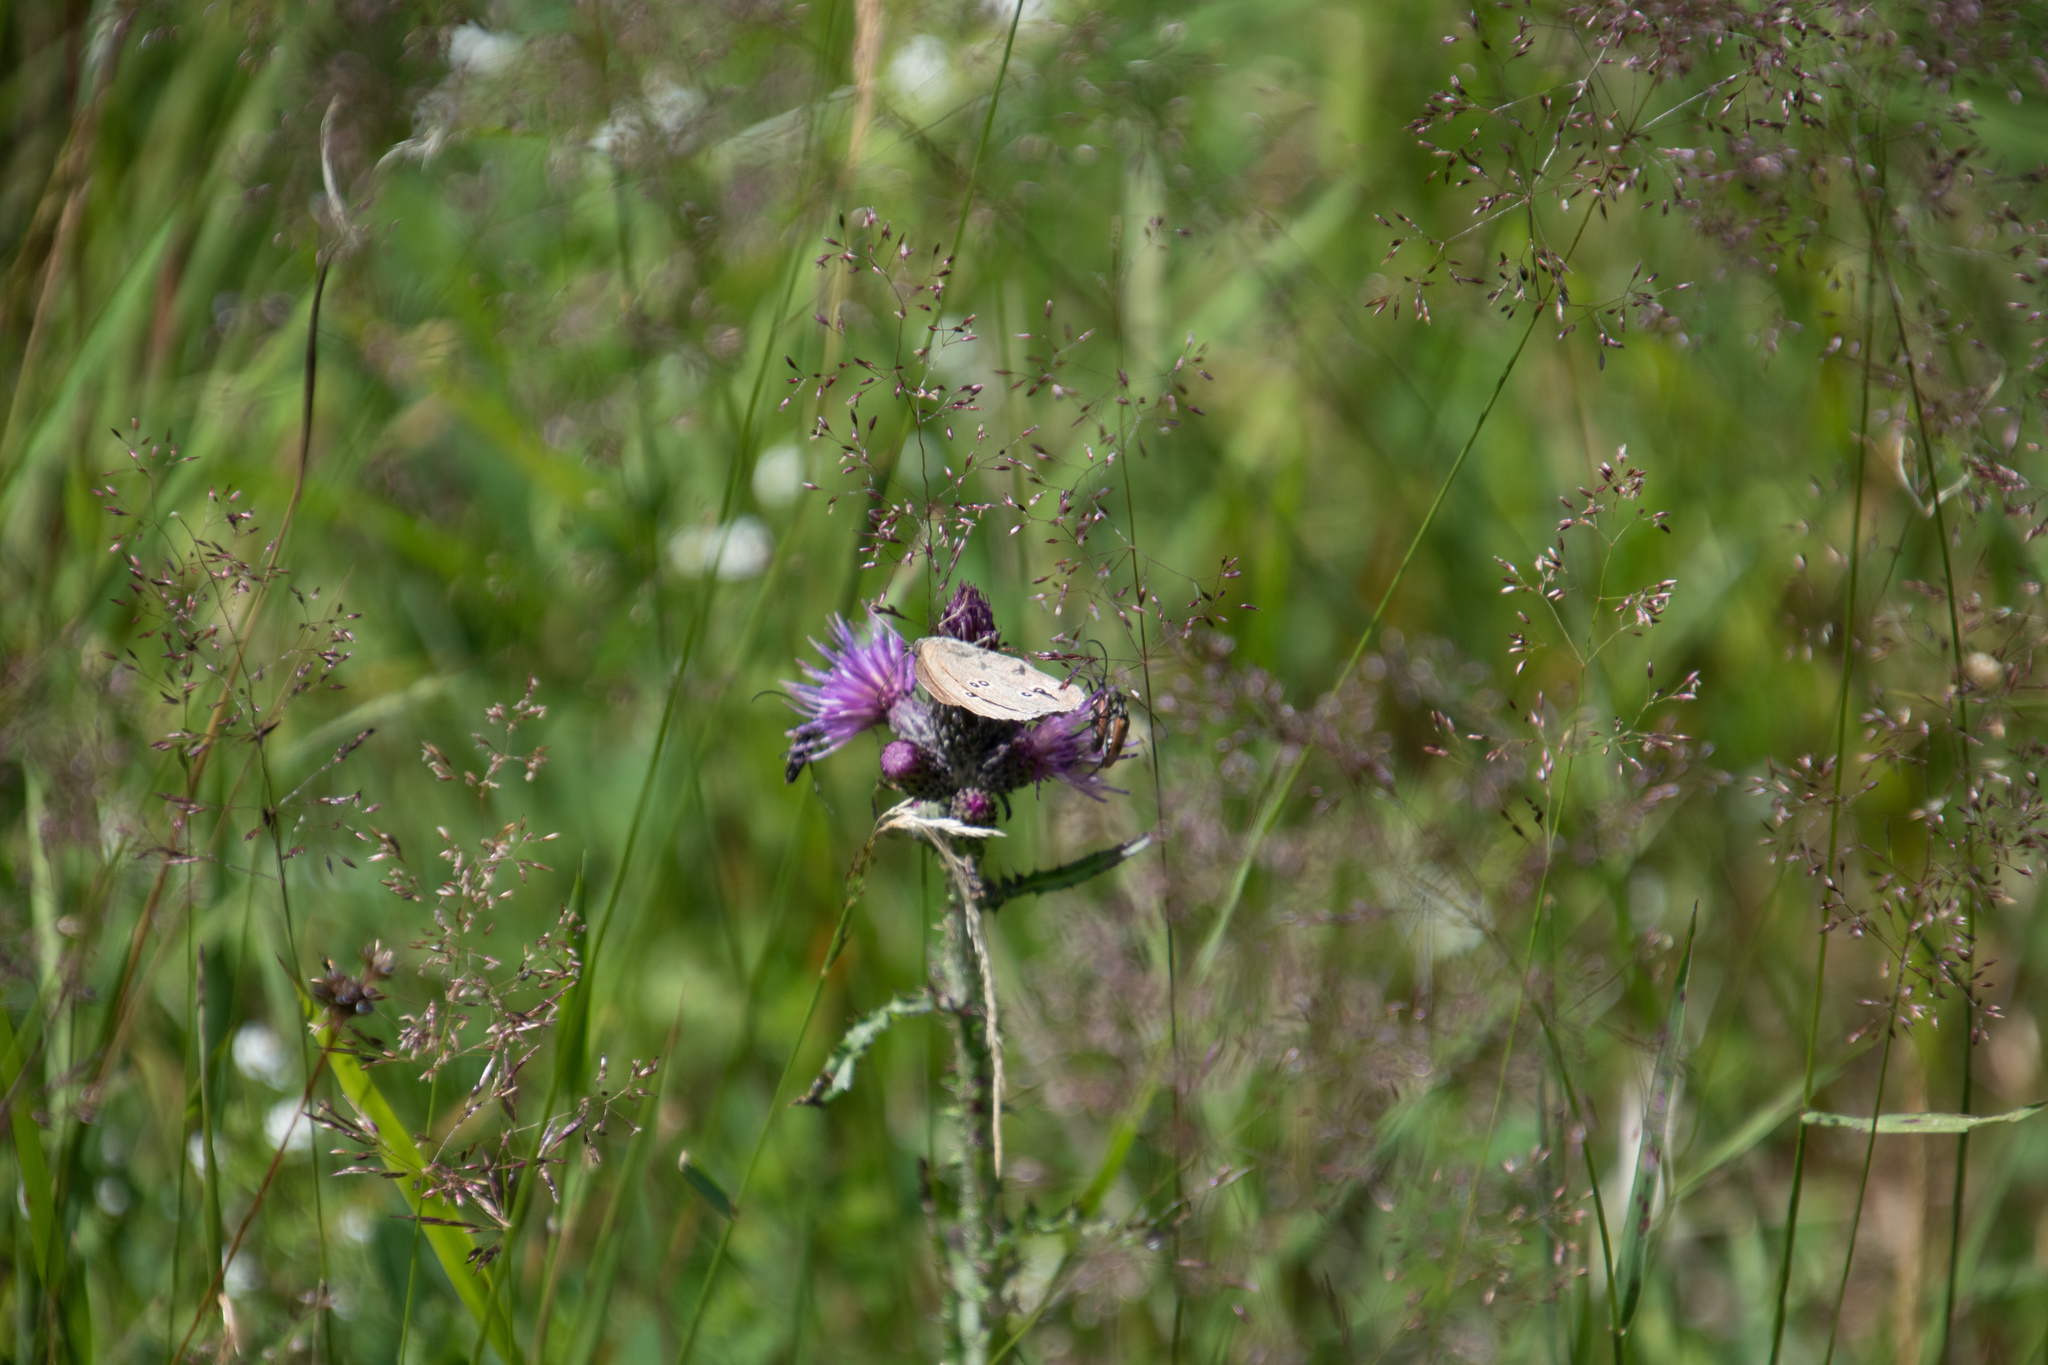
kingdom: Animalia
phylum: Arthropoda
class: Insecta
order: Lepidoptera
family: Nymphalidae
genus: Aphantopus
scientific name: Aphantopus hyperantus
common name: Ringlet
